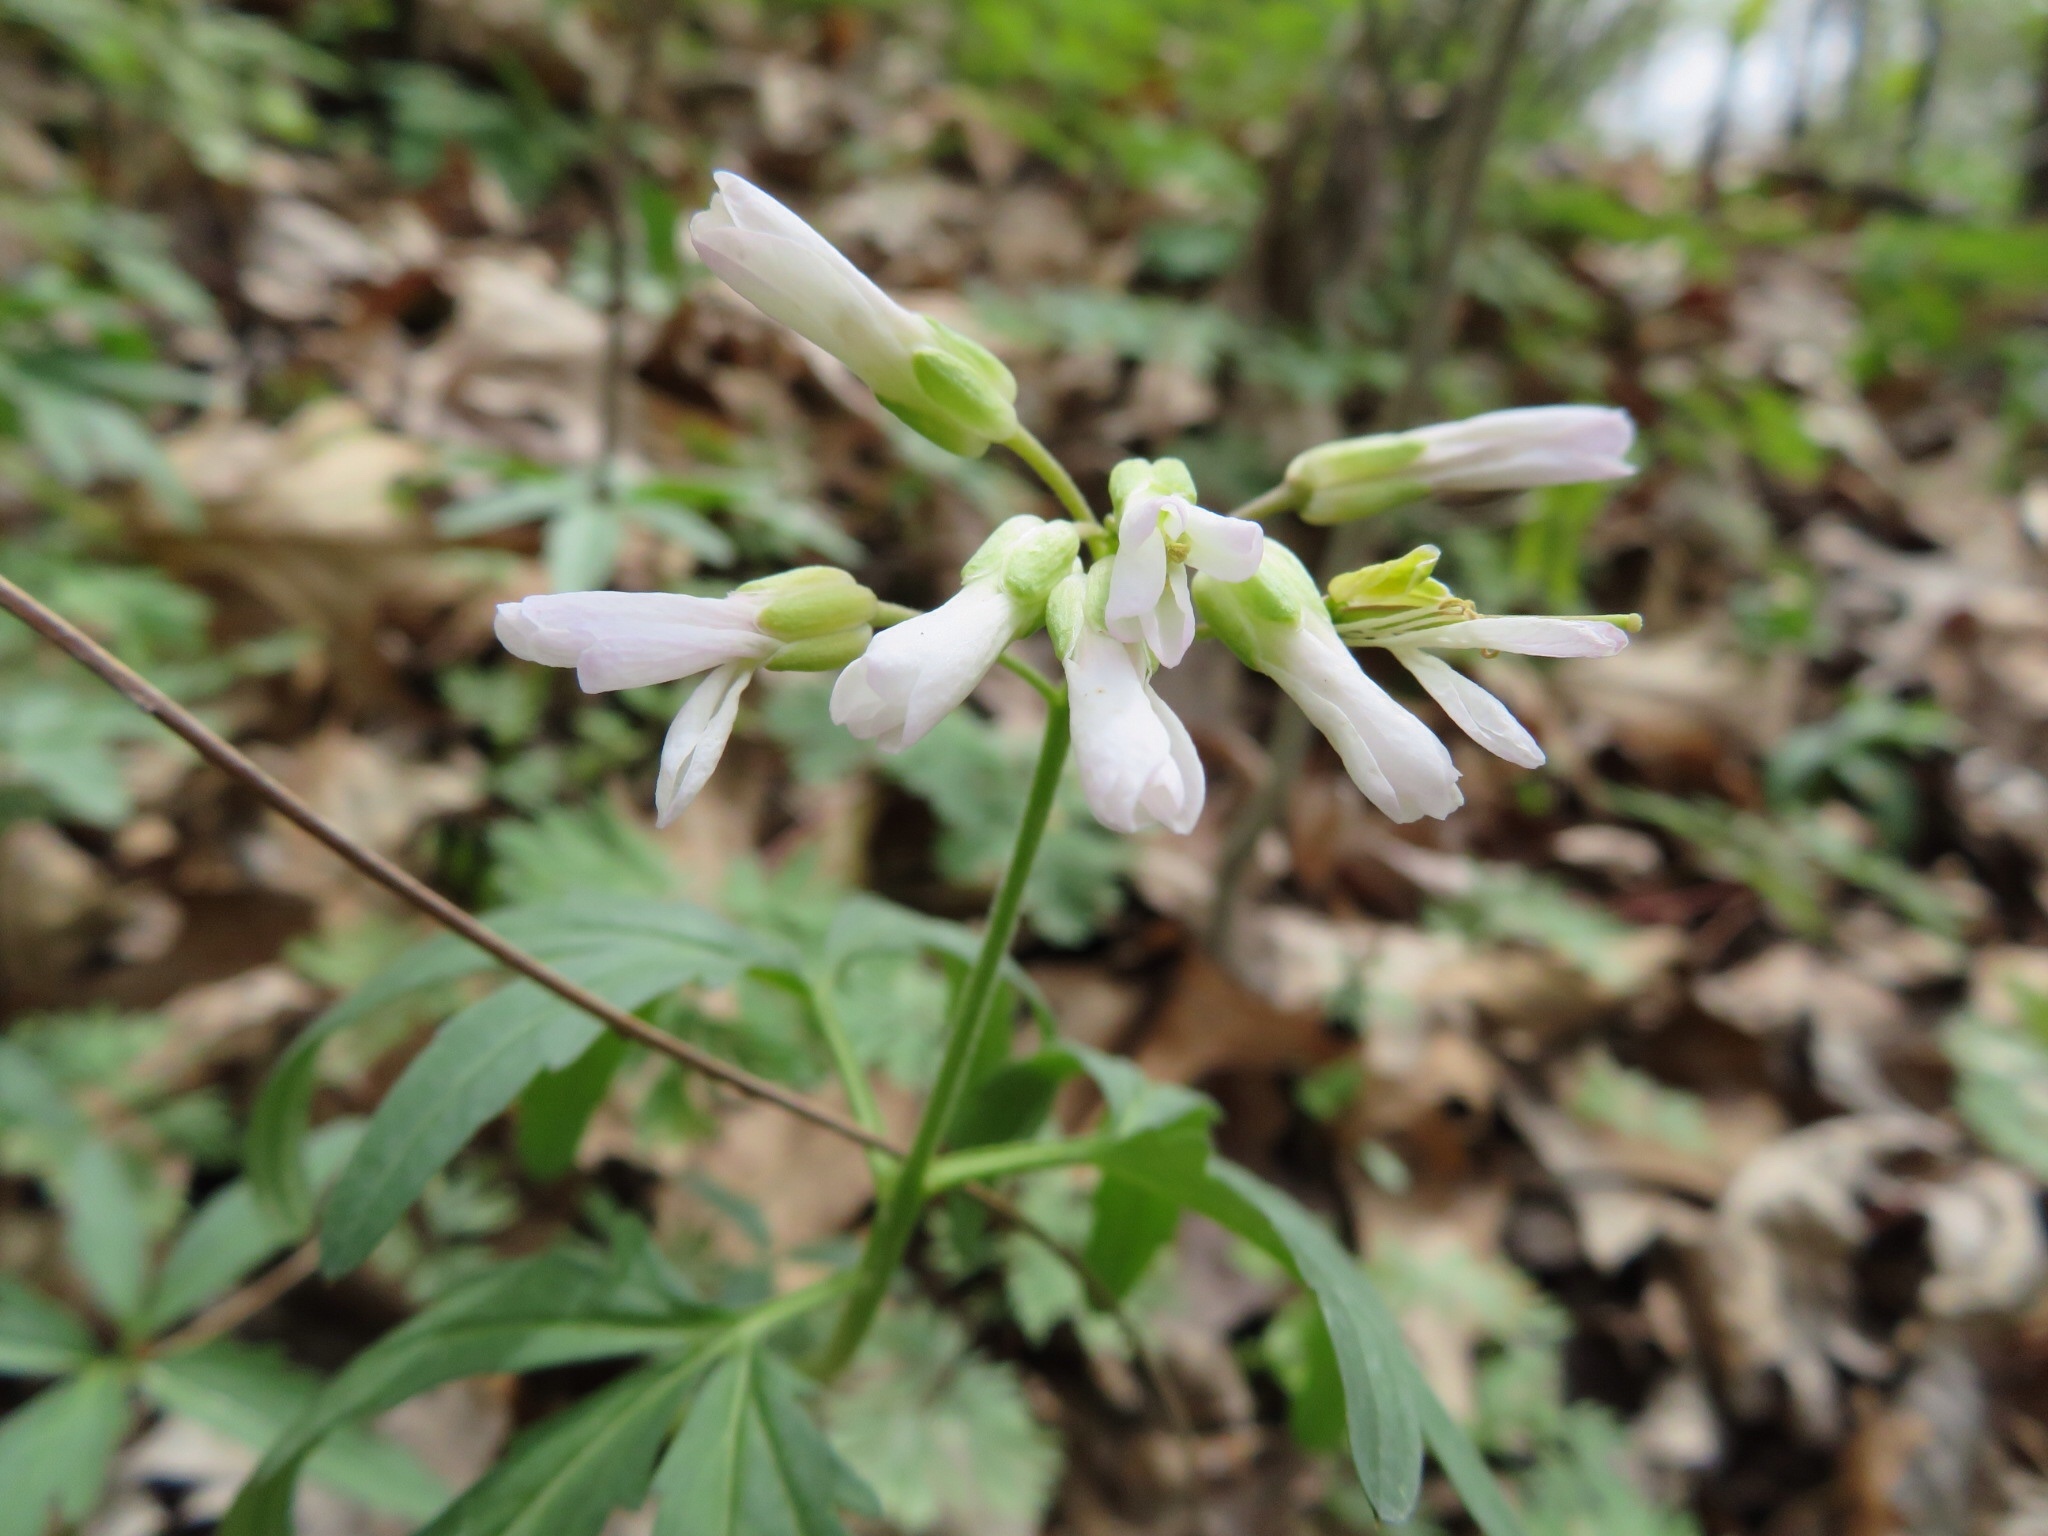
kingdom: Plantae
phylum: Tracheophyta
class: Magnoliopsida
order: Brassicales
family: Brassicaceae
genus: Cardamine
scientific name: Cardamine concatenata
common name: Cut-leaf toothcup
